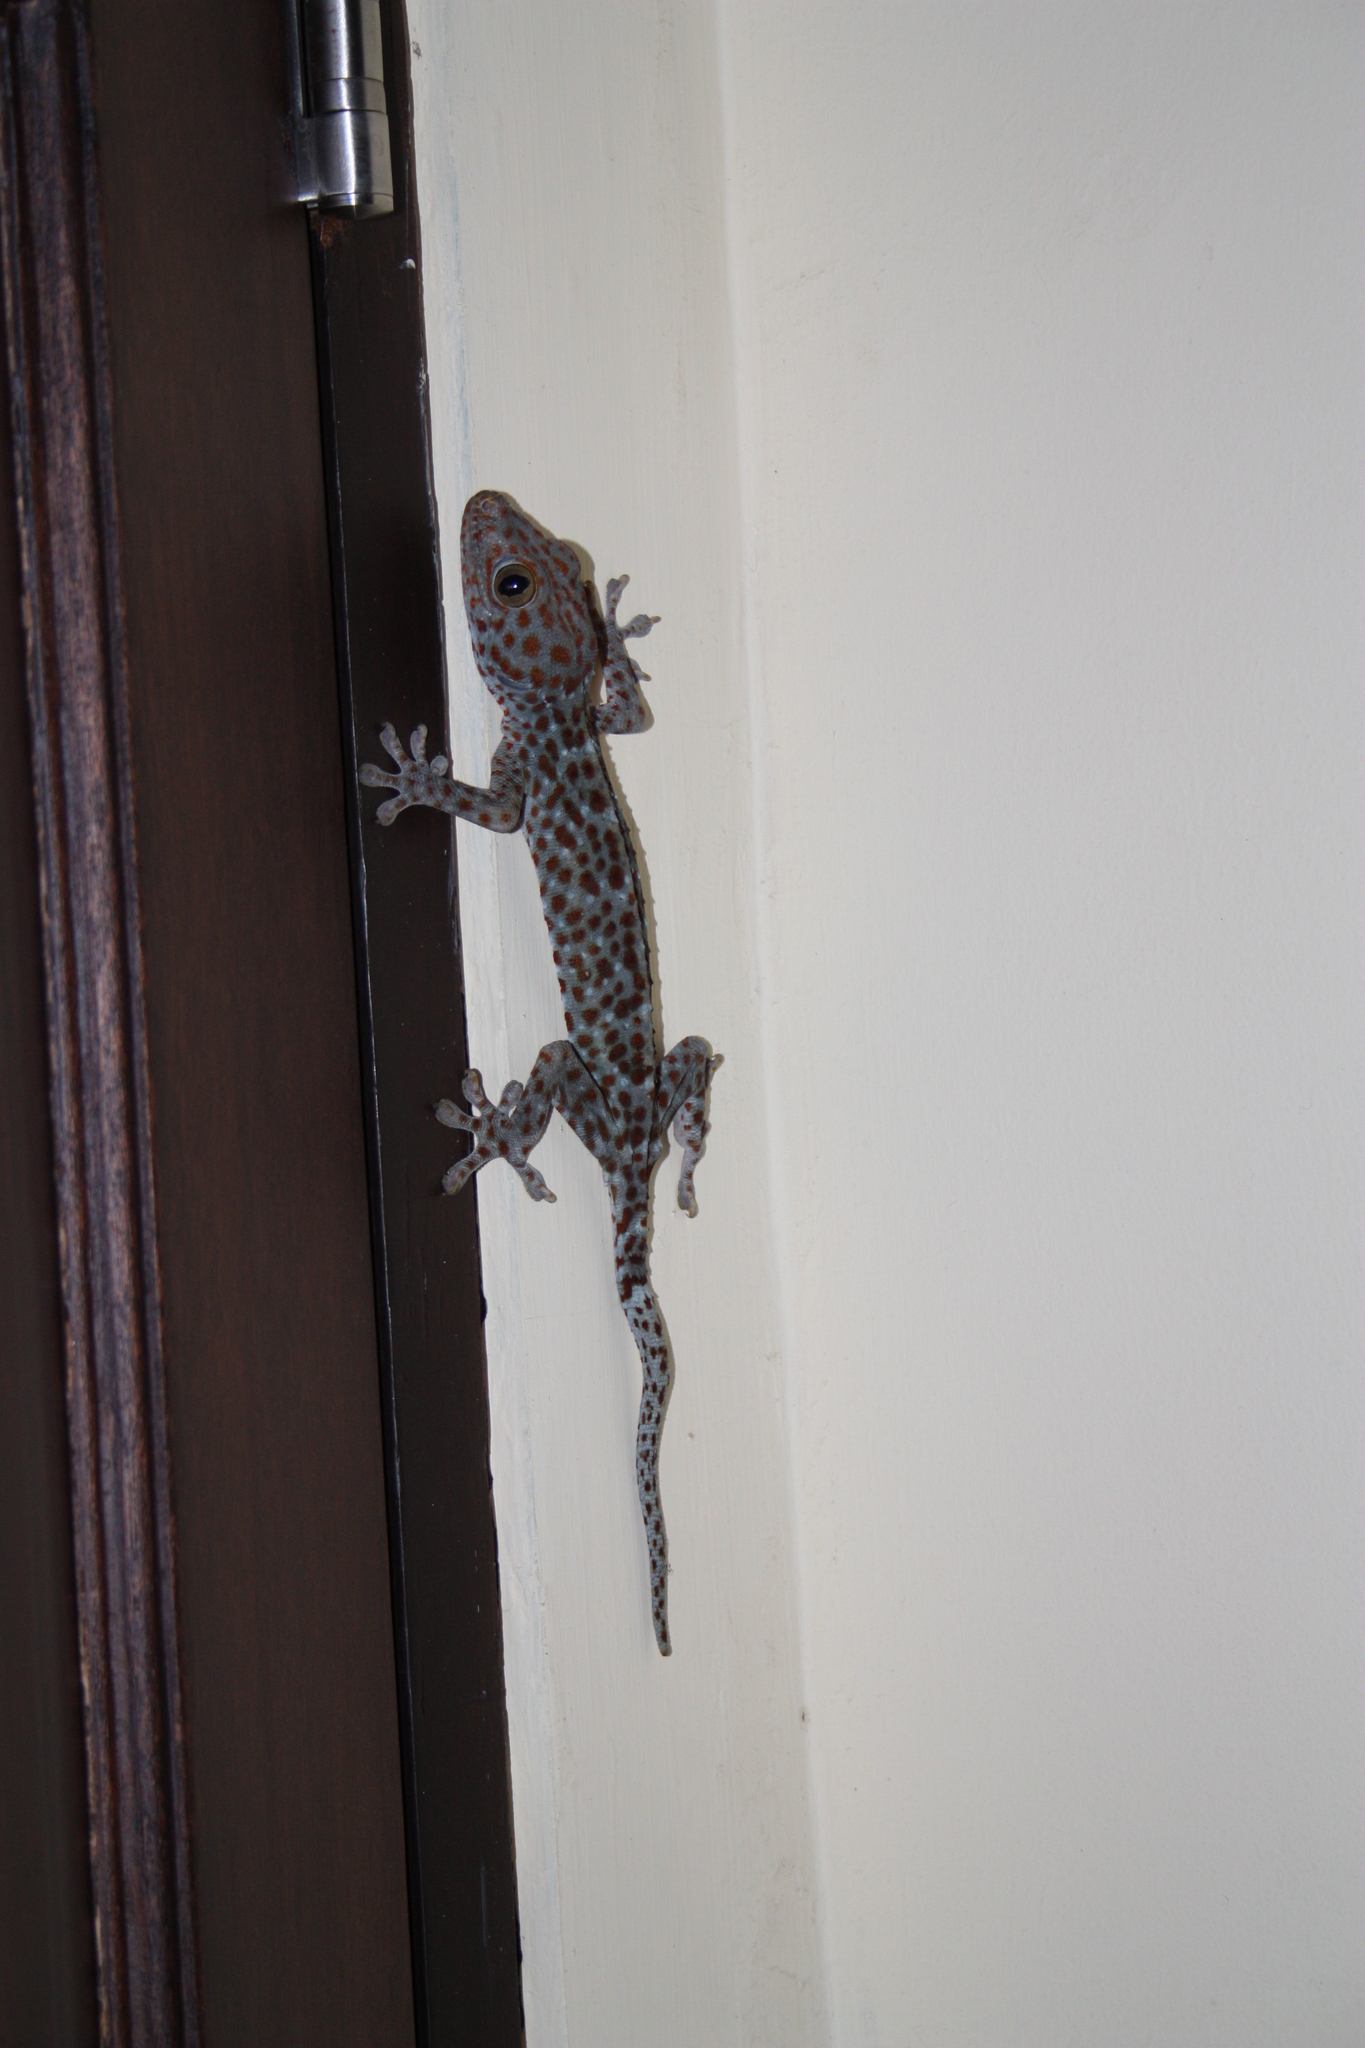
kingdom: Animalia
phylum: Chordata
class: Squamata
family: Gekkonidae
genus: Gekko
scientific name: Gekko gecko
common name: Tokay gecko
